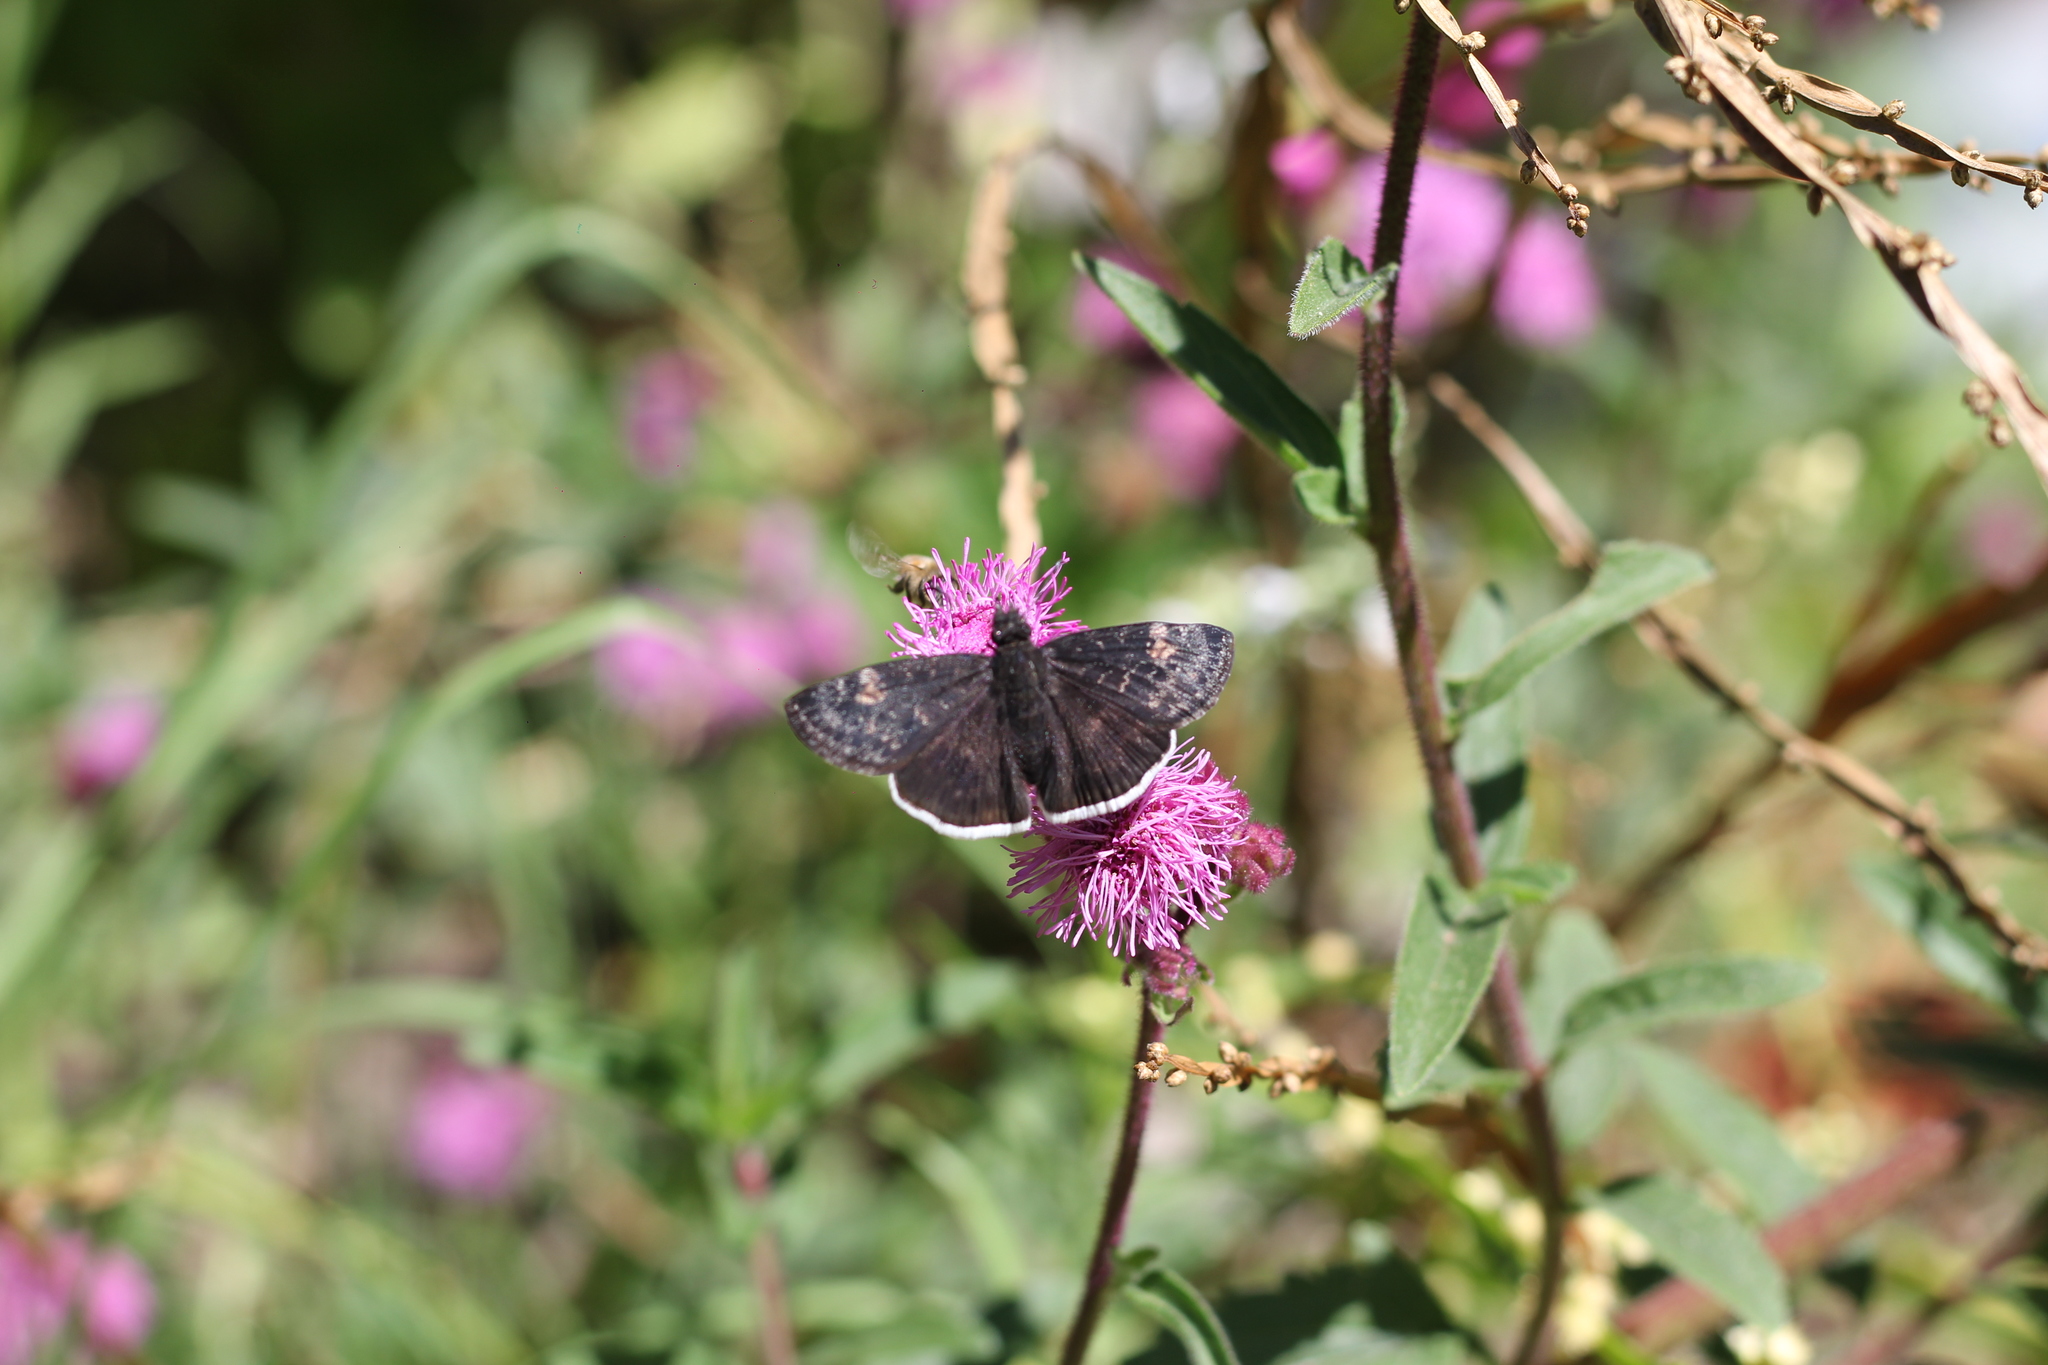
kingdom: Animalia
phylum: Arthropoda
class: Insecta
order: Lepidoptera
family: Hesperiidae
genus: Erynnis
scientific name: Erynnis funeralis
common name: Funereal duskywing
